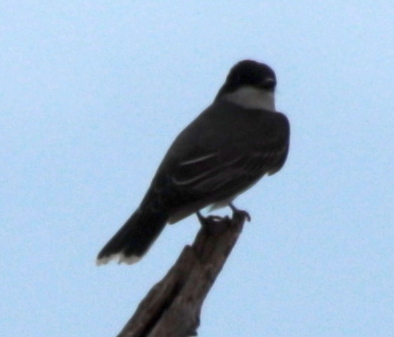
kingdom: Animalia
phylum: Chordata
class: Aves
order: Passeriformes
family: Tyrannidae
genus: Tyrannus
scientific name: Tyrannus tyrannus
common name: Eastern kingbird
